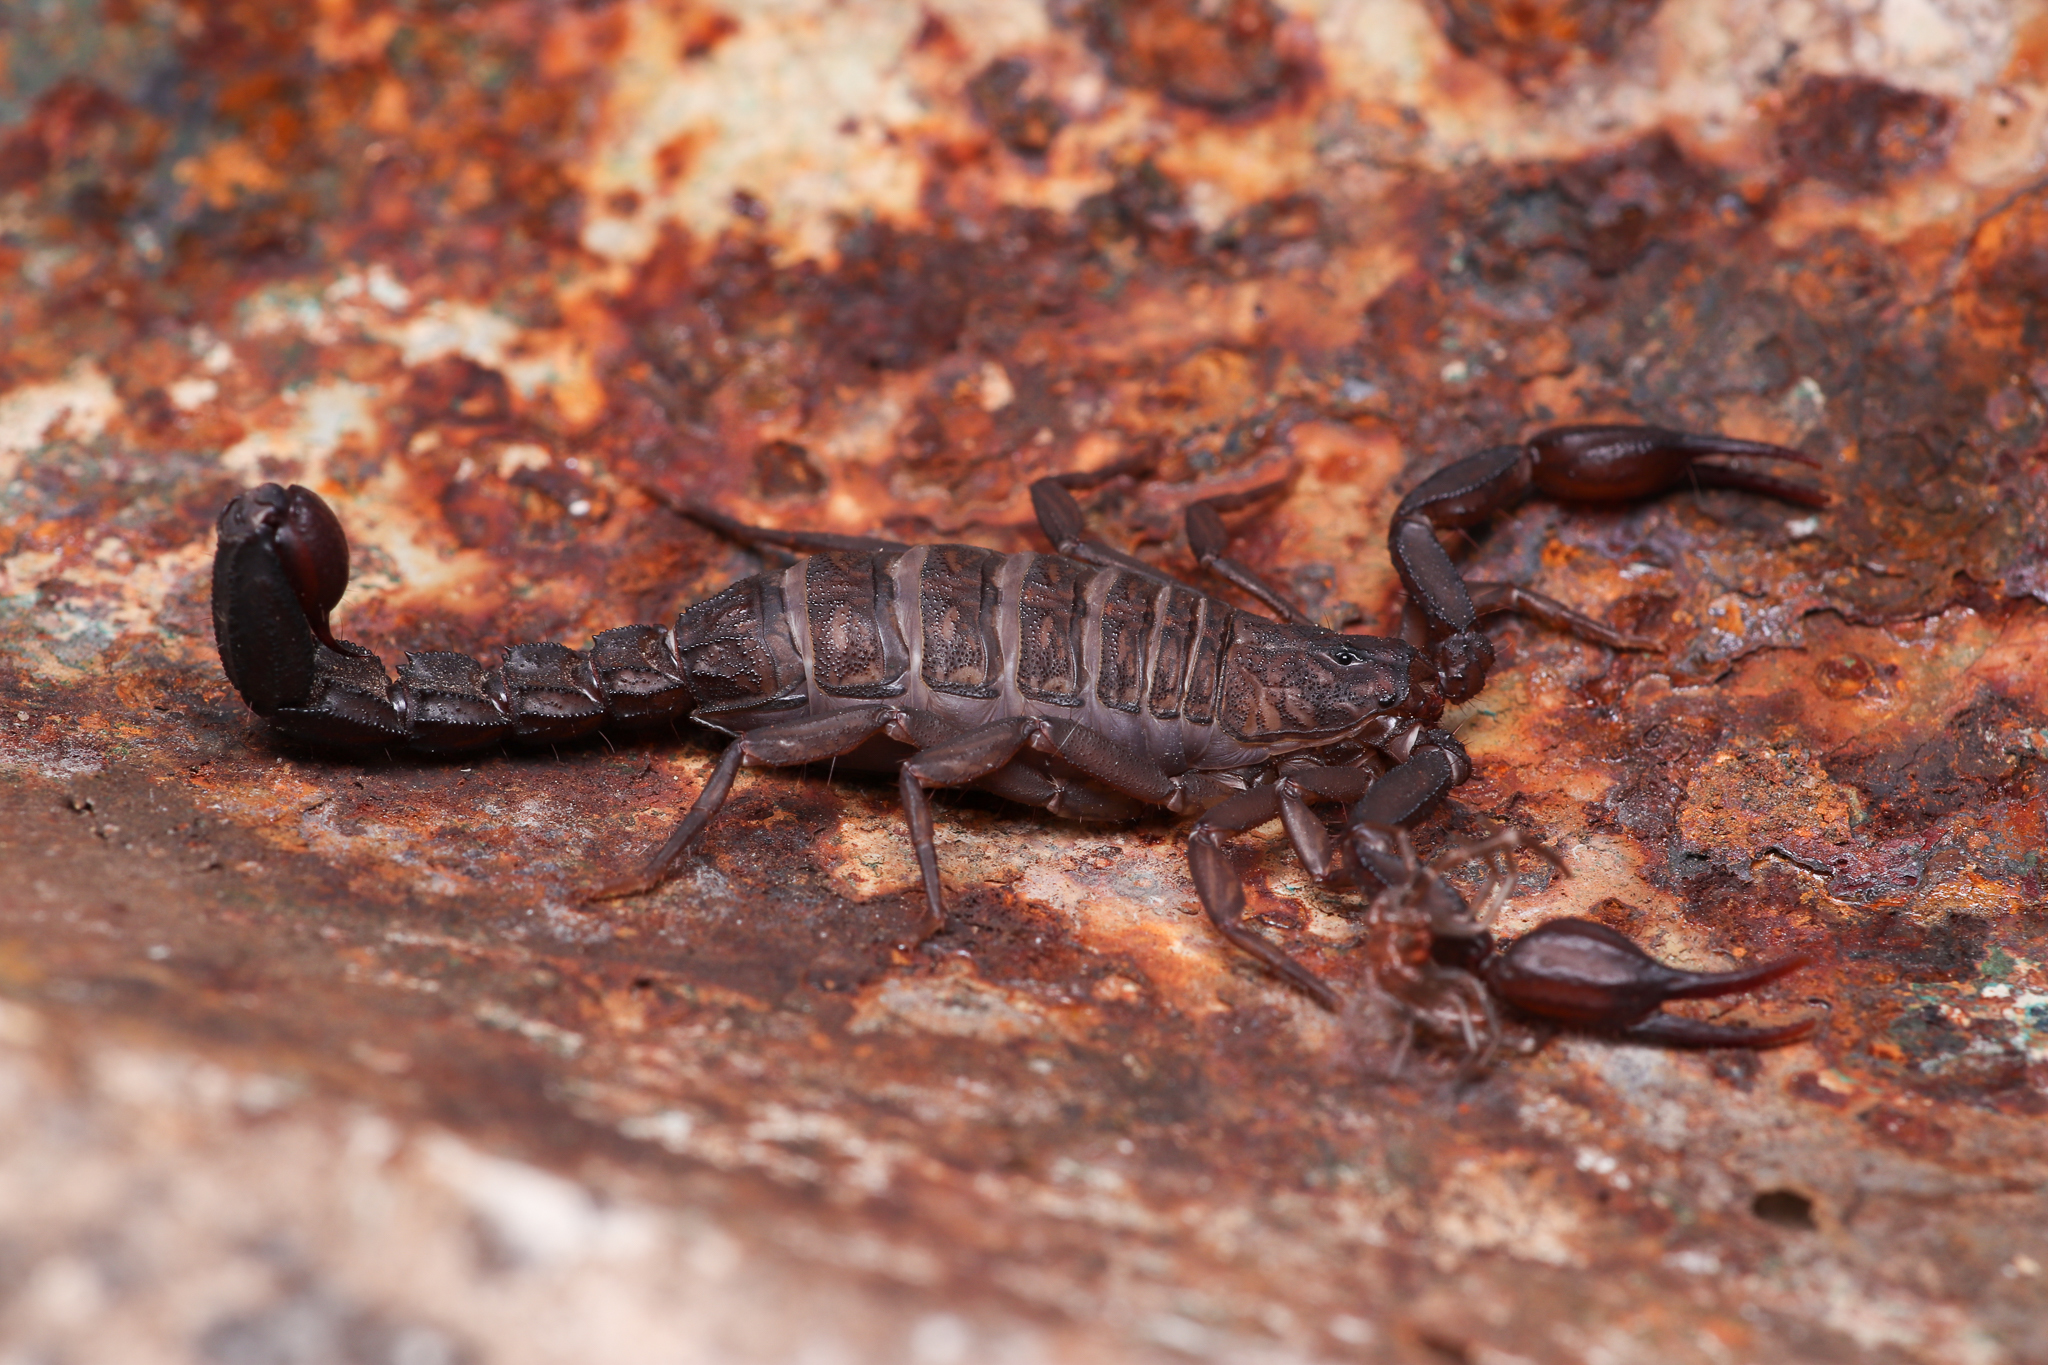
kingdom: Animalia
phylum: Arthropoda
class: Arachnida
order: Scorpiones
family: Vaejovidae
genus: Vaejovis
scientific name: Vaejovis mexicanus
